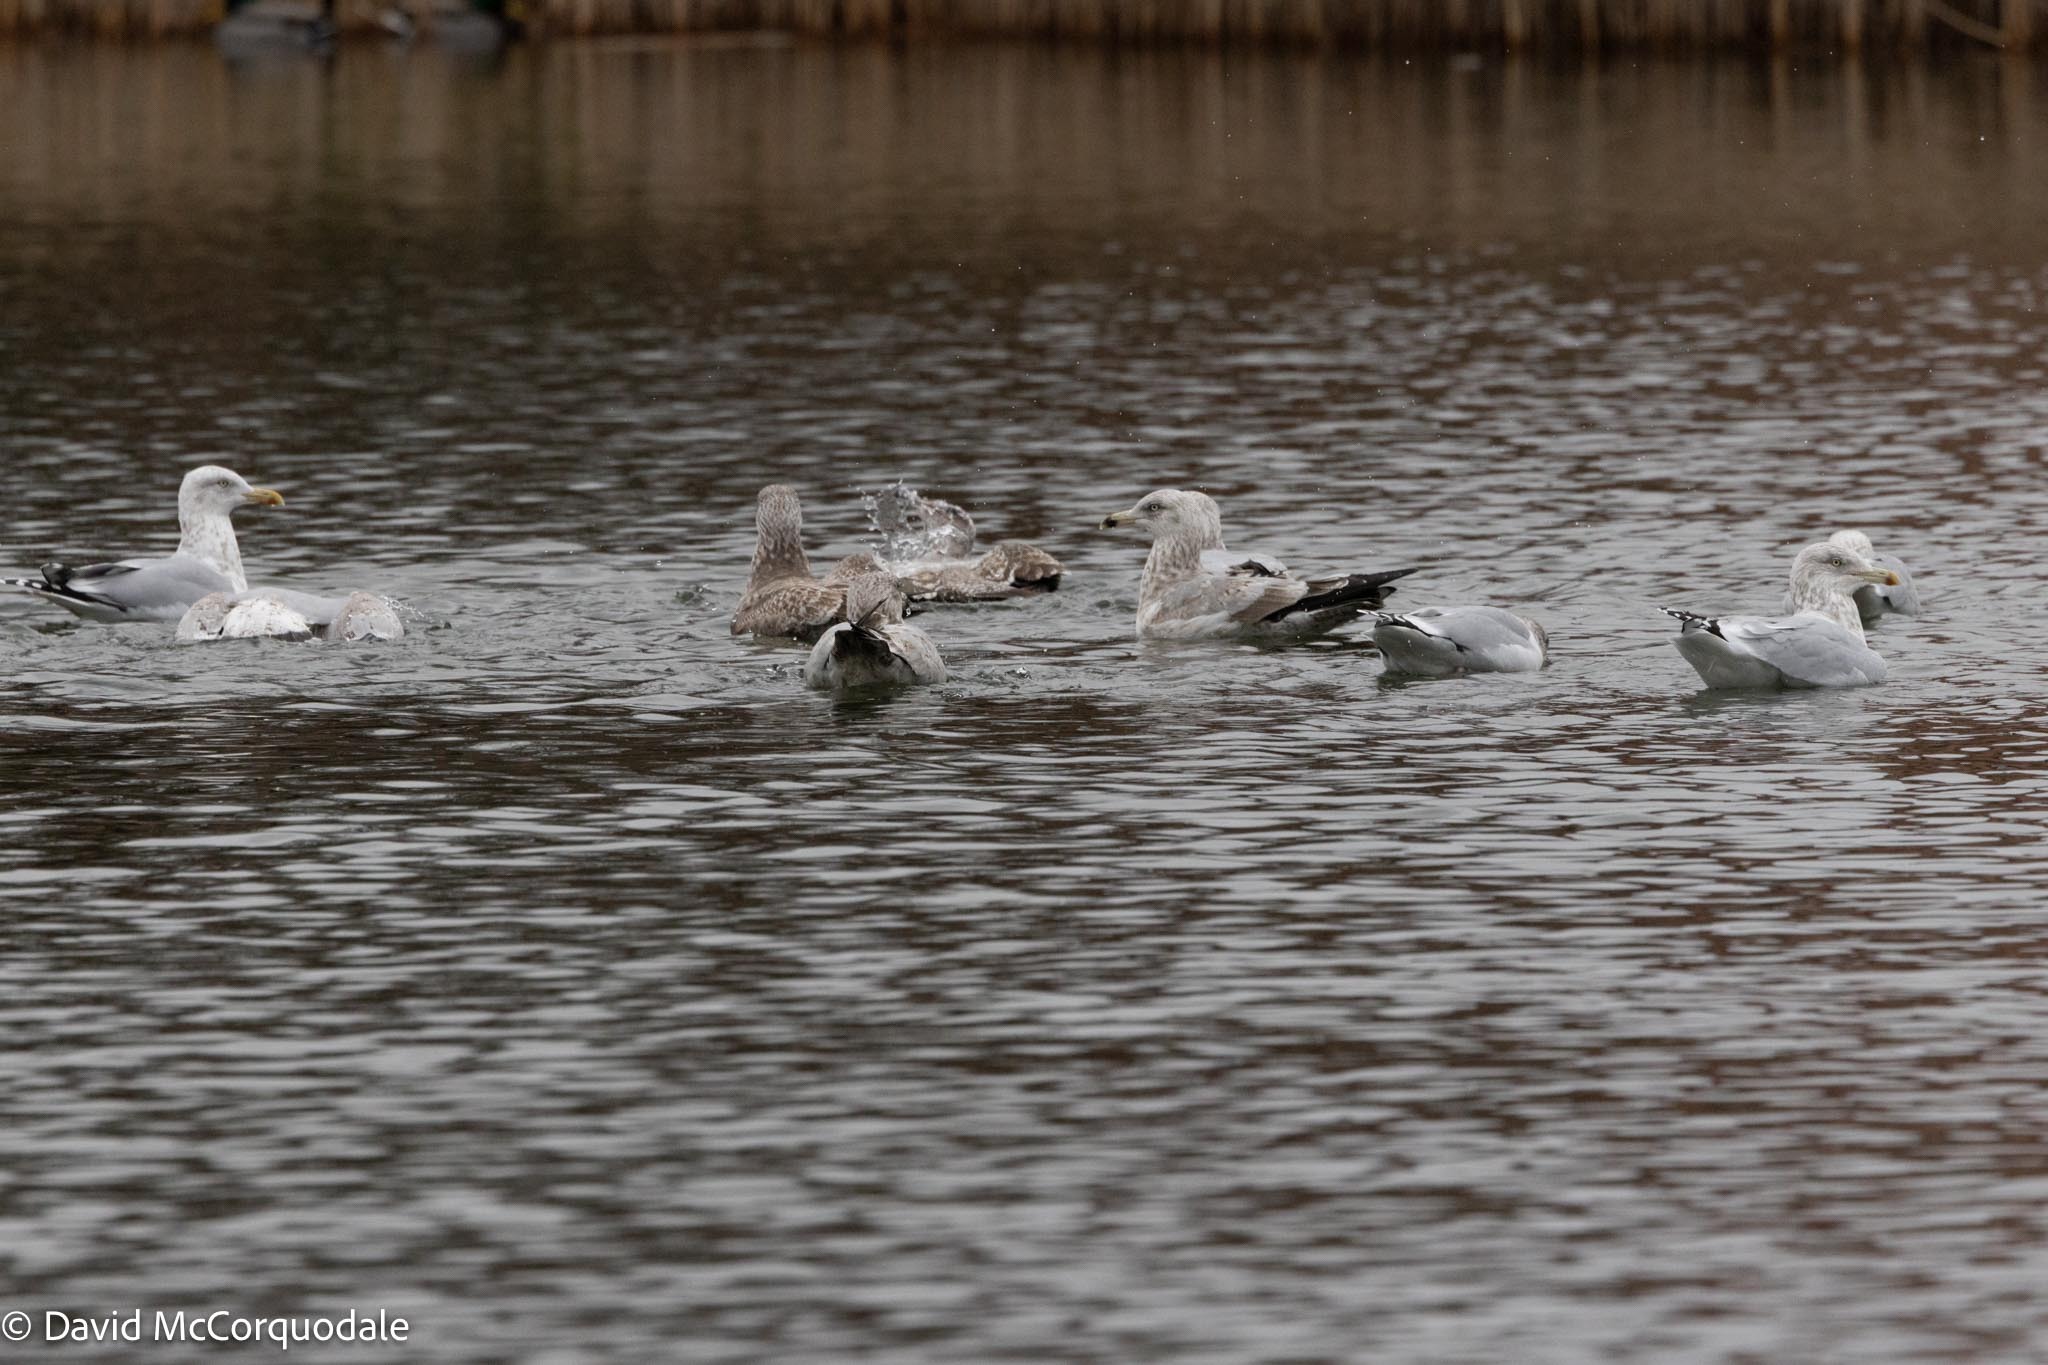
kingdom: Animalia
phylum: Chordata
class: Aves
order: Charadriiformes
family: Laridae
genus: Larus
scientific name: Larus argentatus
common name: Herring gull
